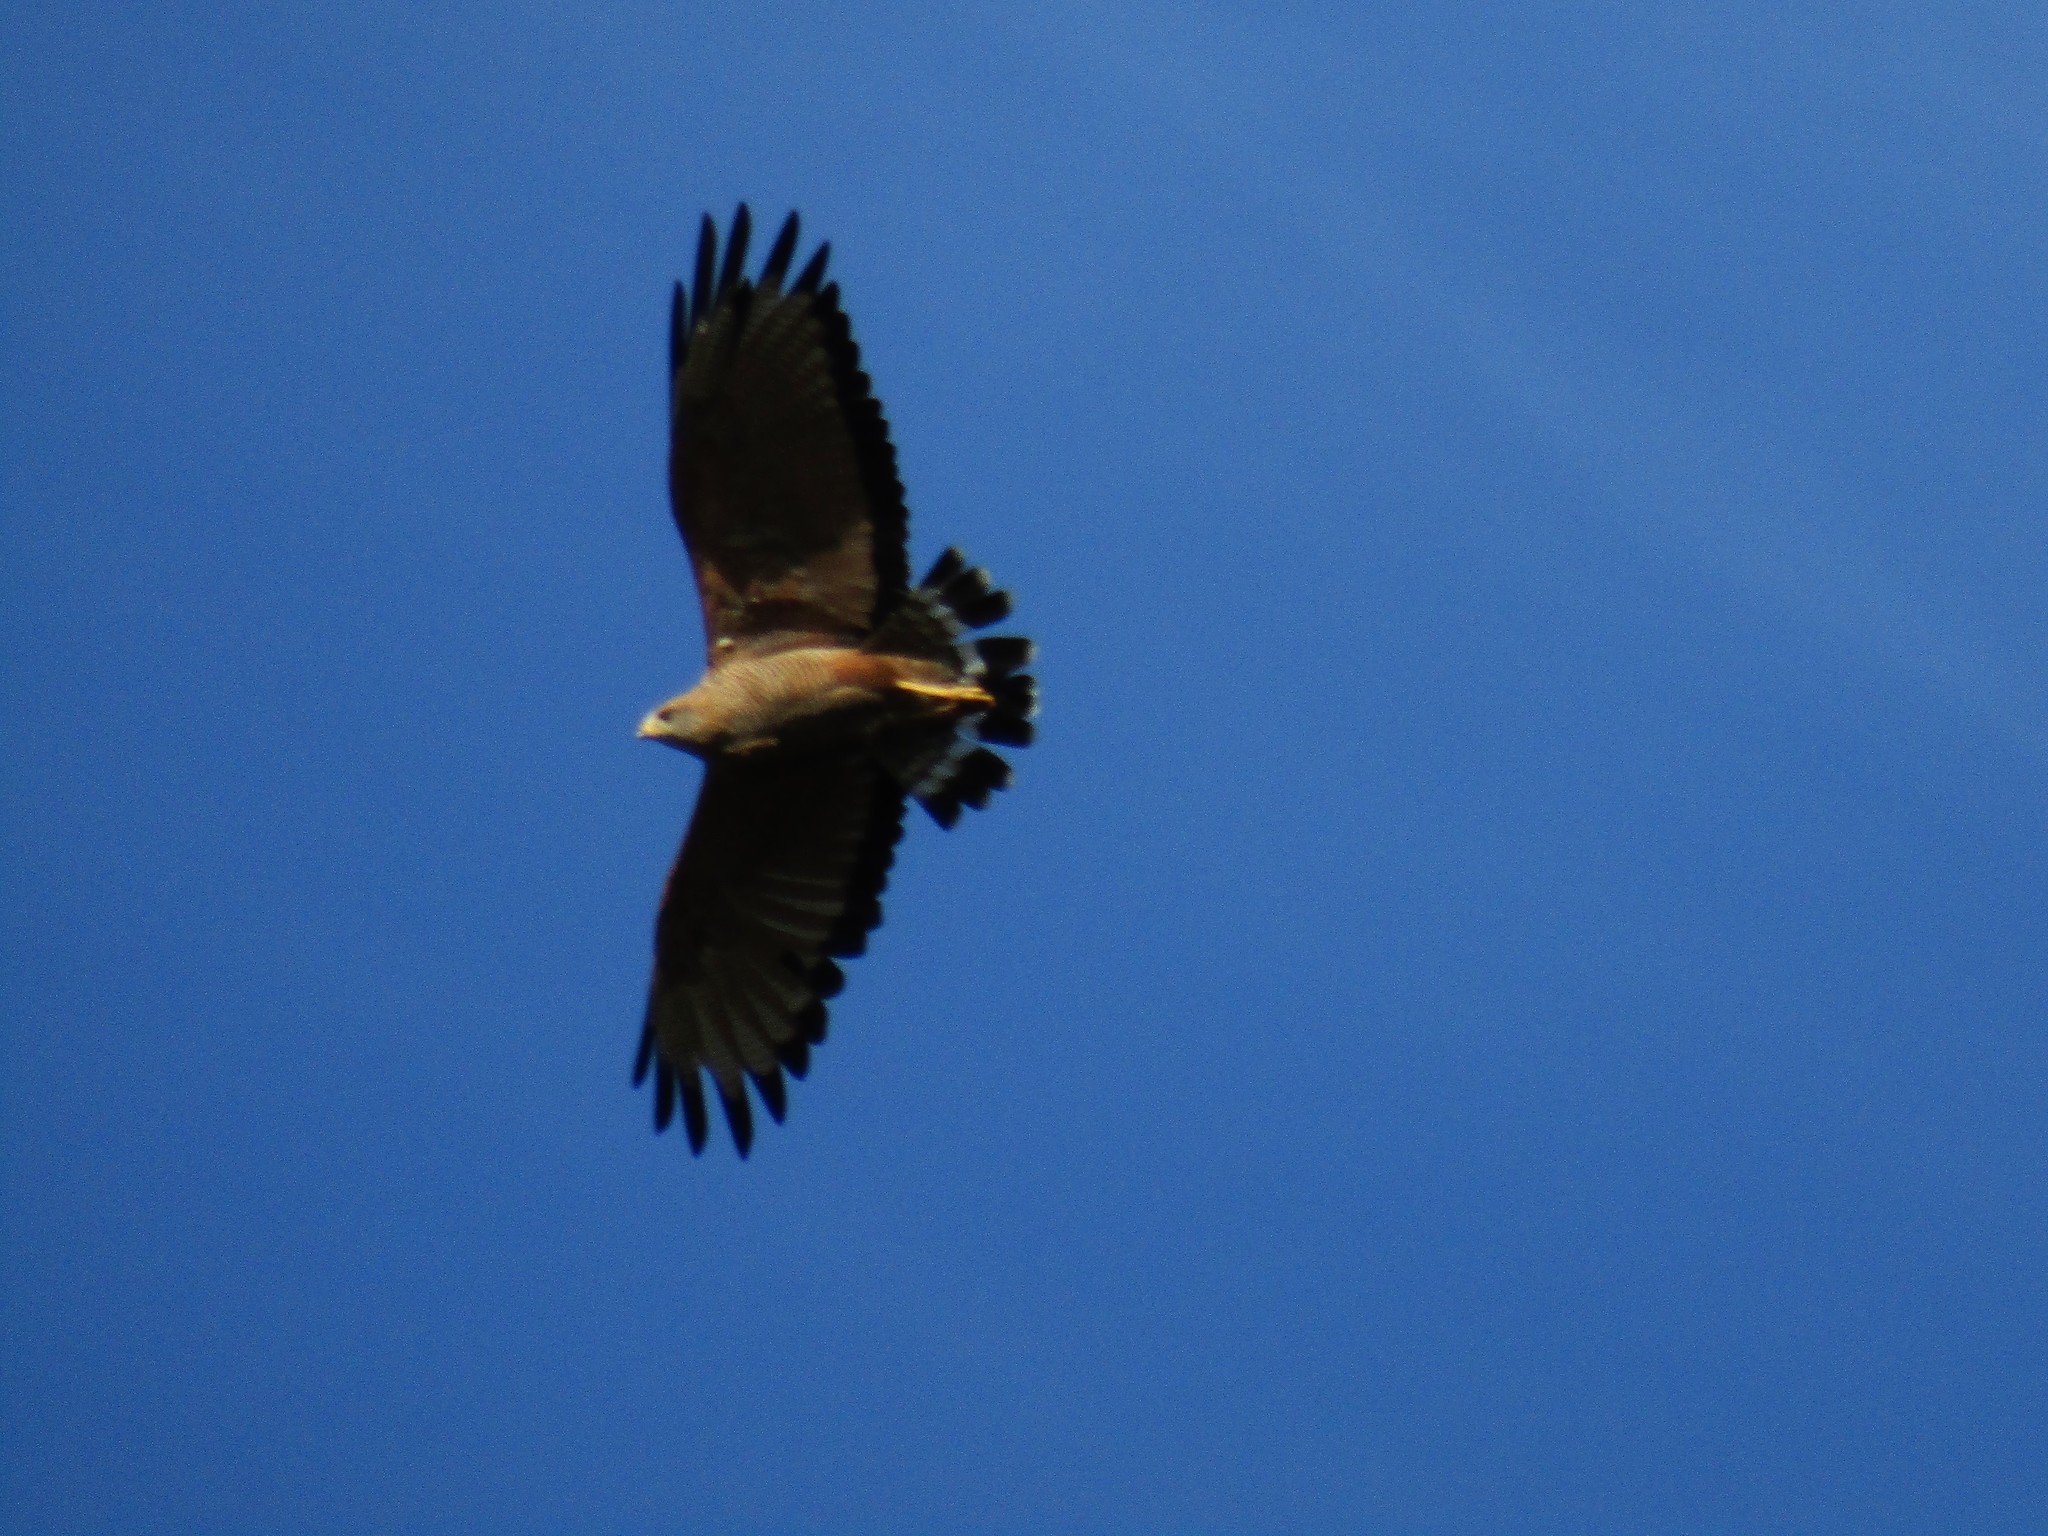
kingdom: Animalia
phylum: Chordata
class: Aves
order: Accipitriformes
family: Accipitridae
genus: Buteogallus
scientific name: Buteogallus meridionalis
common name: Savanna hawk
